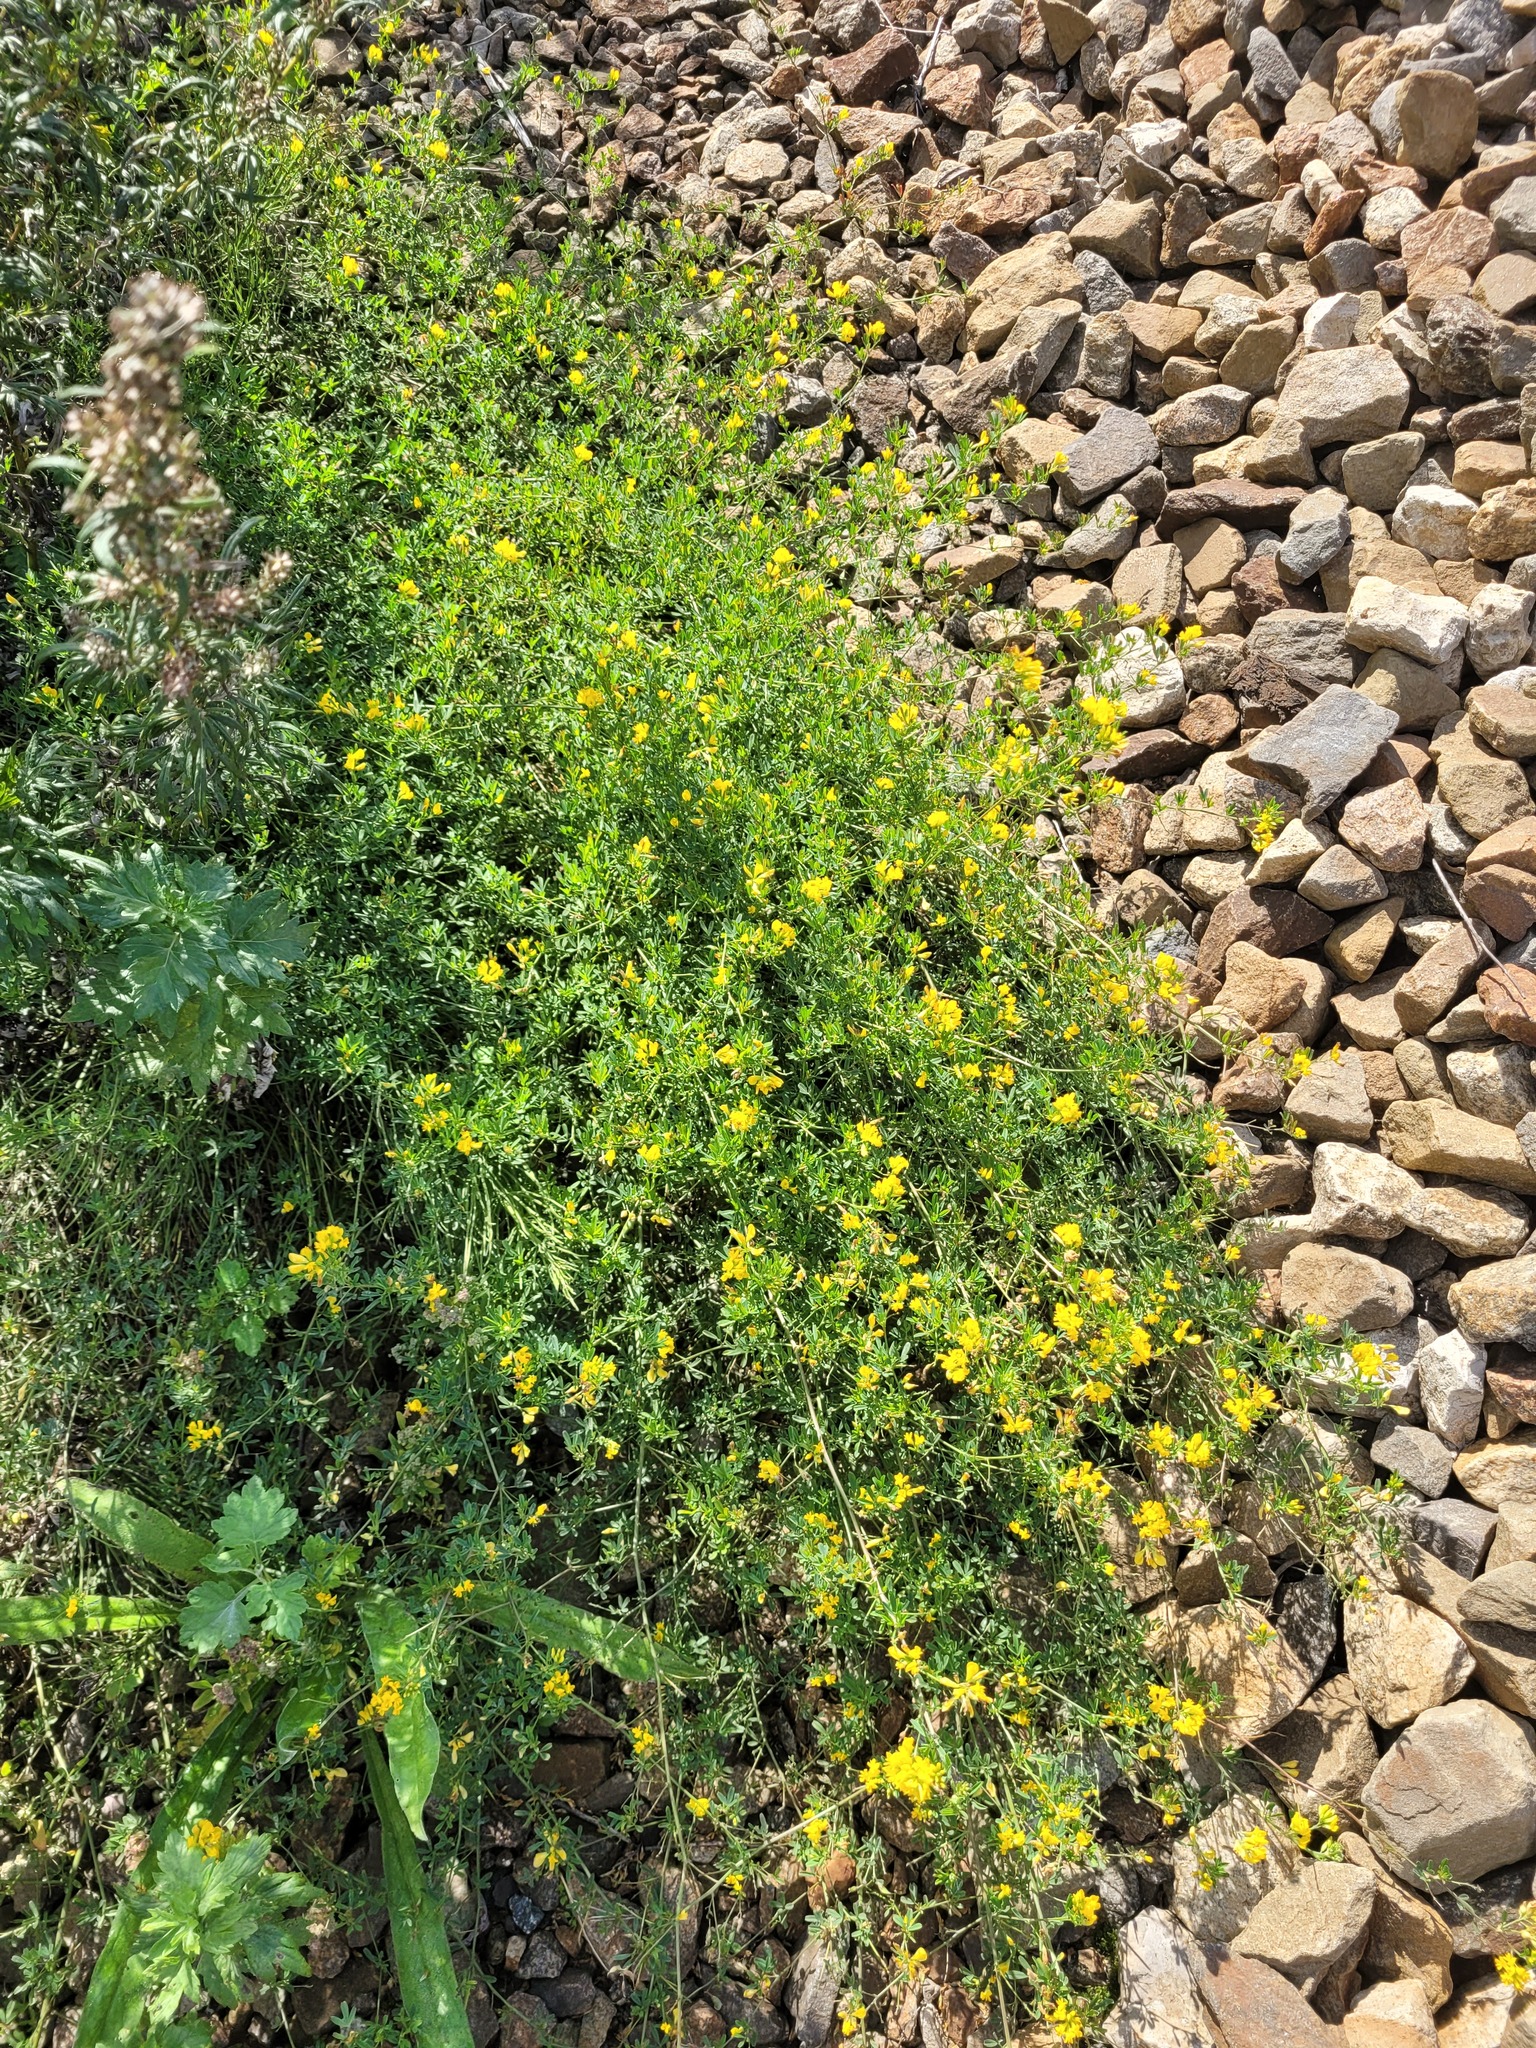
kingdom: Plantae
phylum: Tracheophyta
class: Magnoliopsida
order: Fabales
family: Fabaceae
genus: Medicago
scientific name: Medicago falcata
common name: Sickle medick
